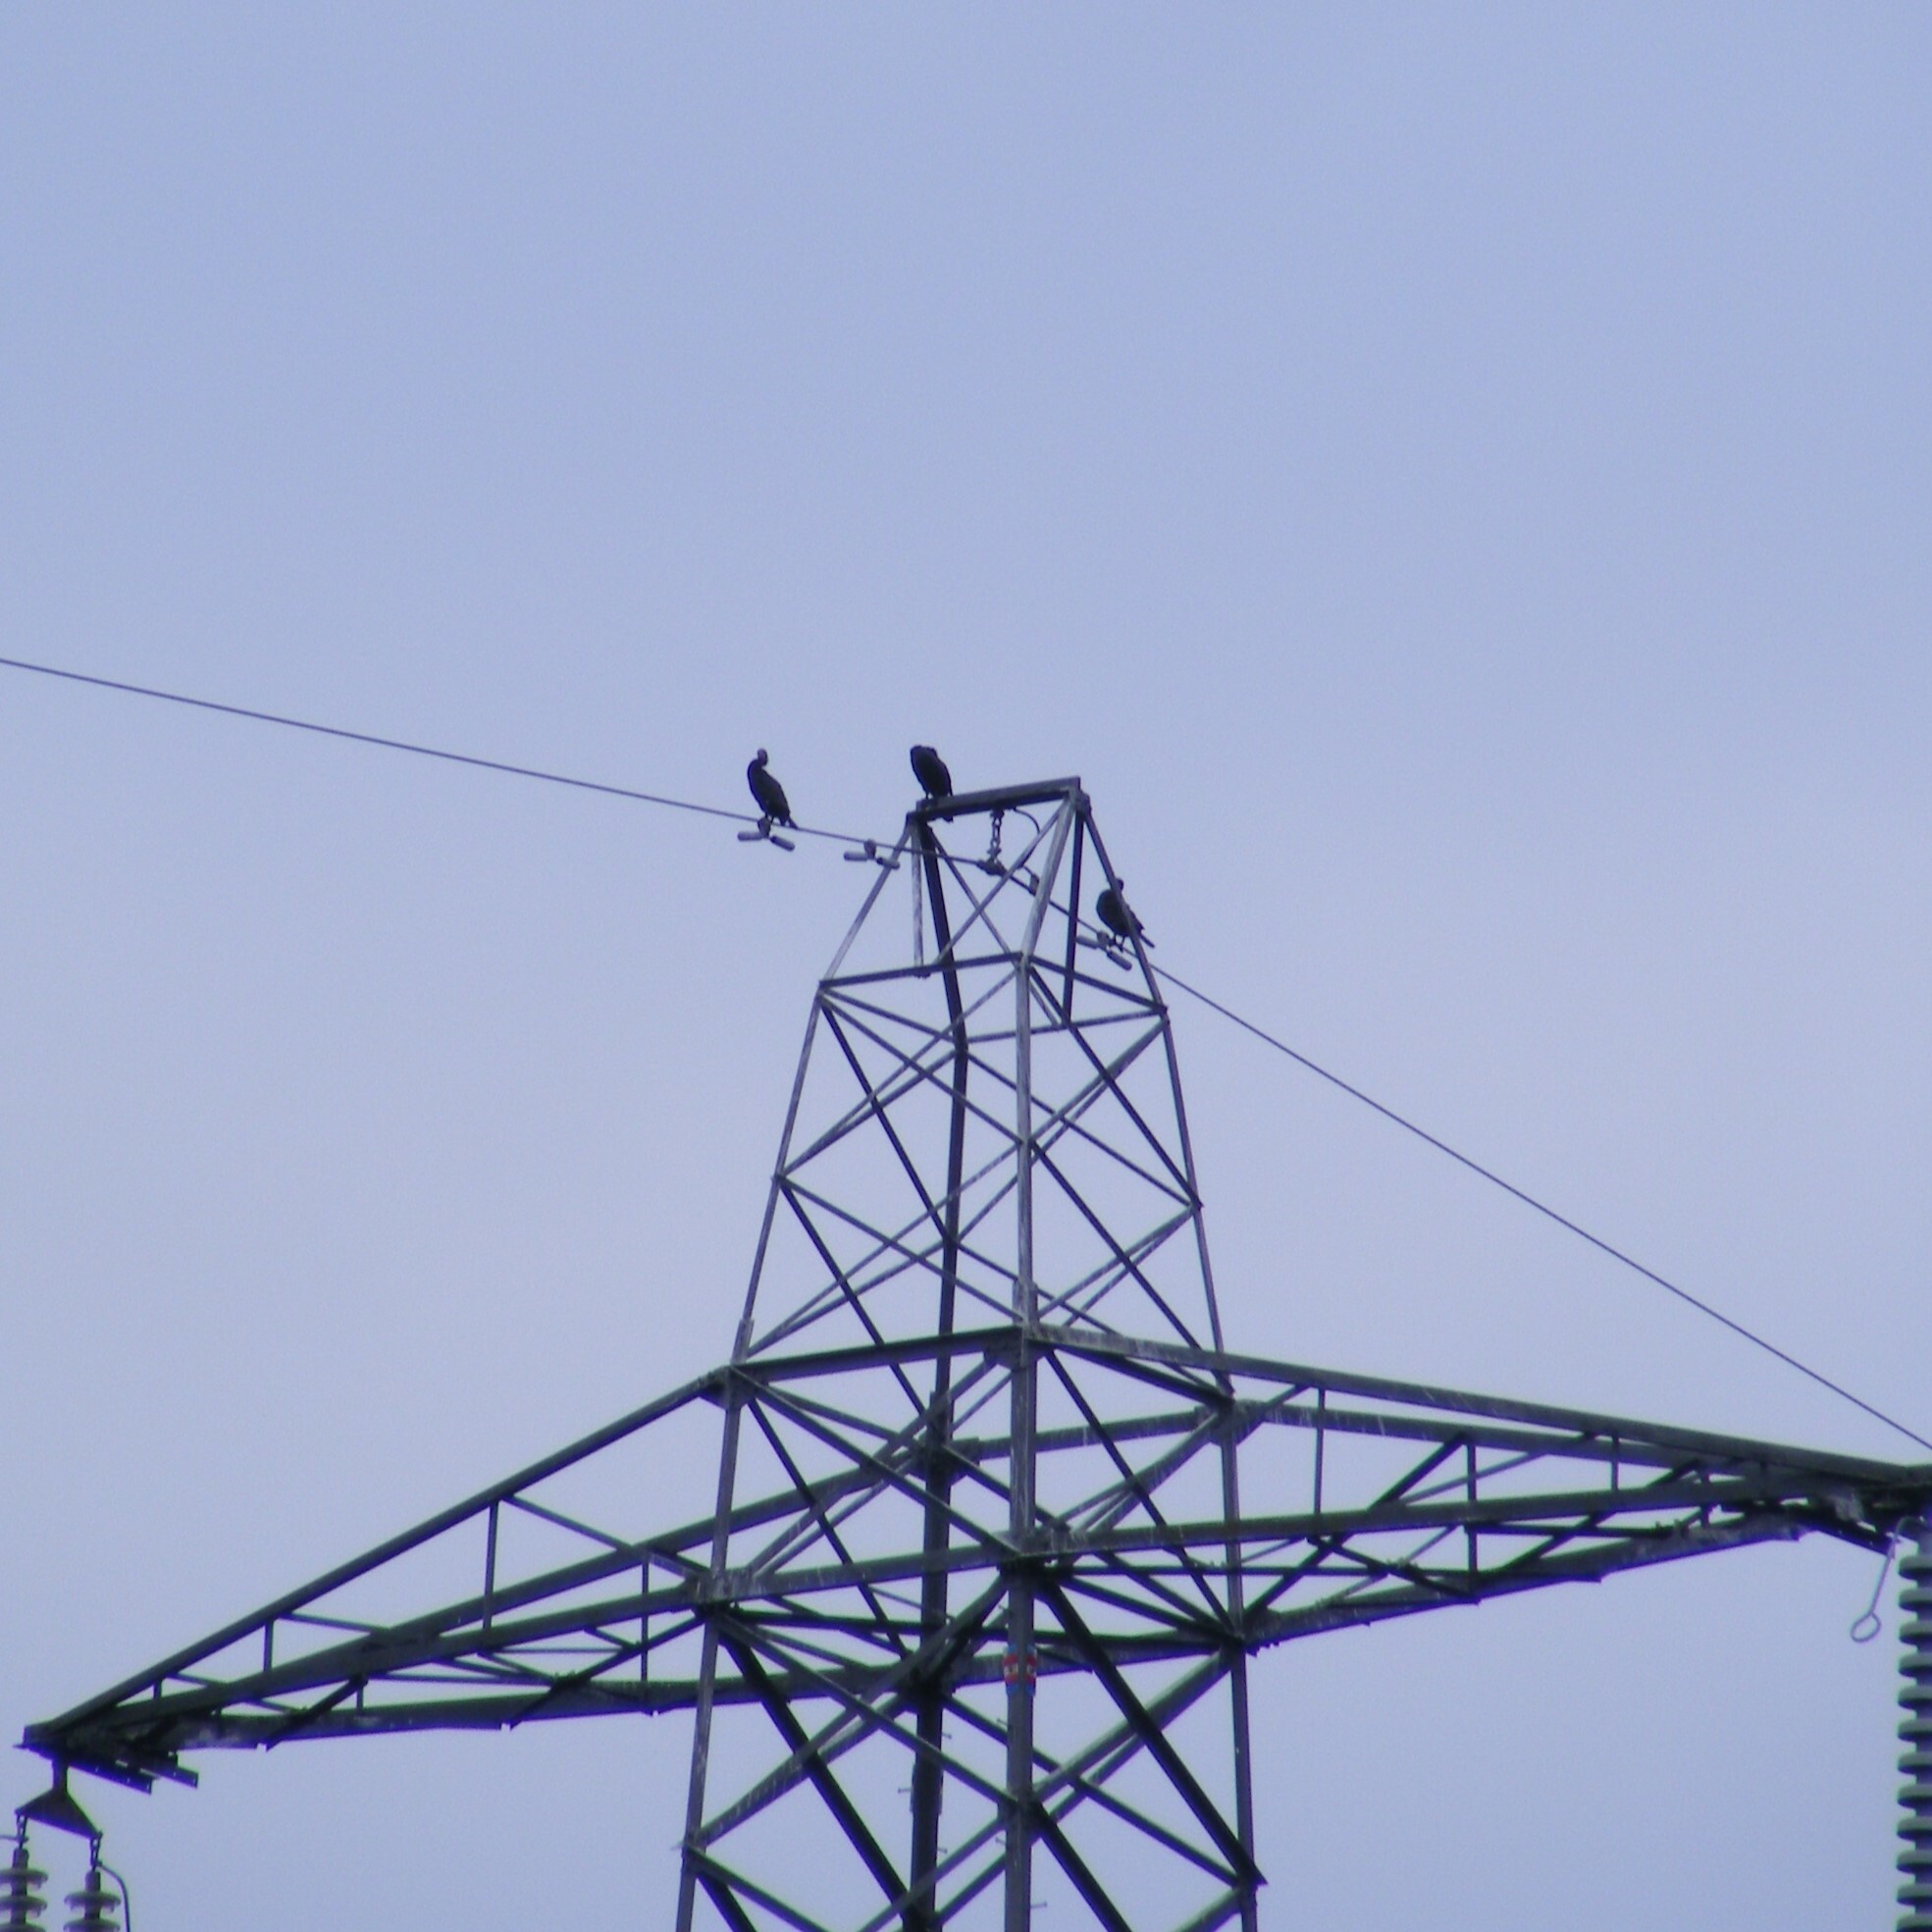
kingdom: Animalia
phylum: Chordata
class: Aves
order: Suliformes
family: Phalacrocoracidae
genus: Phalacrocorax
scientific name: Phalacrocorax carbo
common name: Great cormorant
